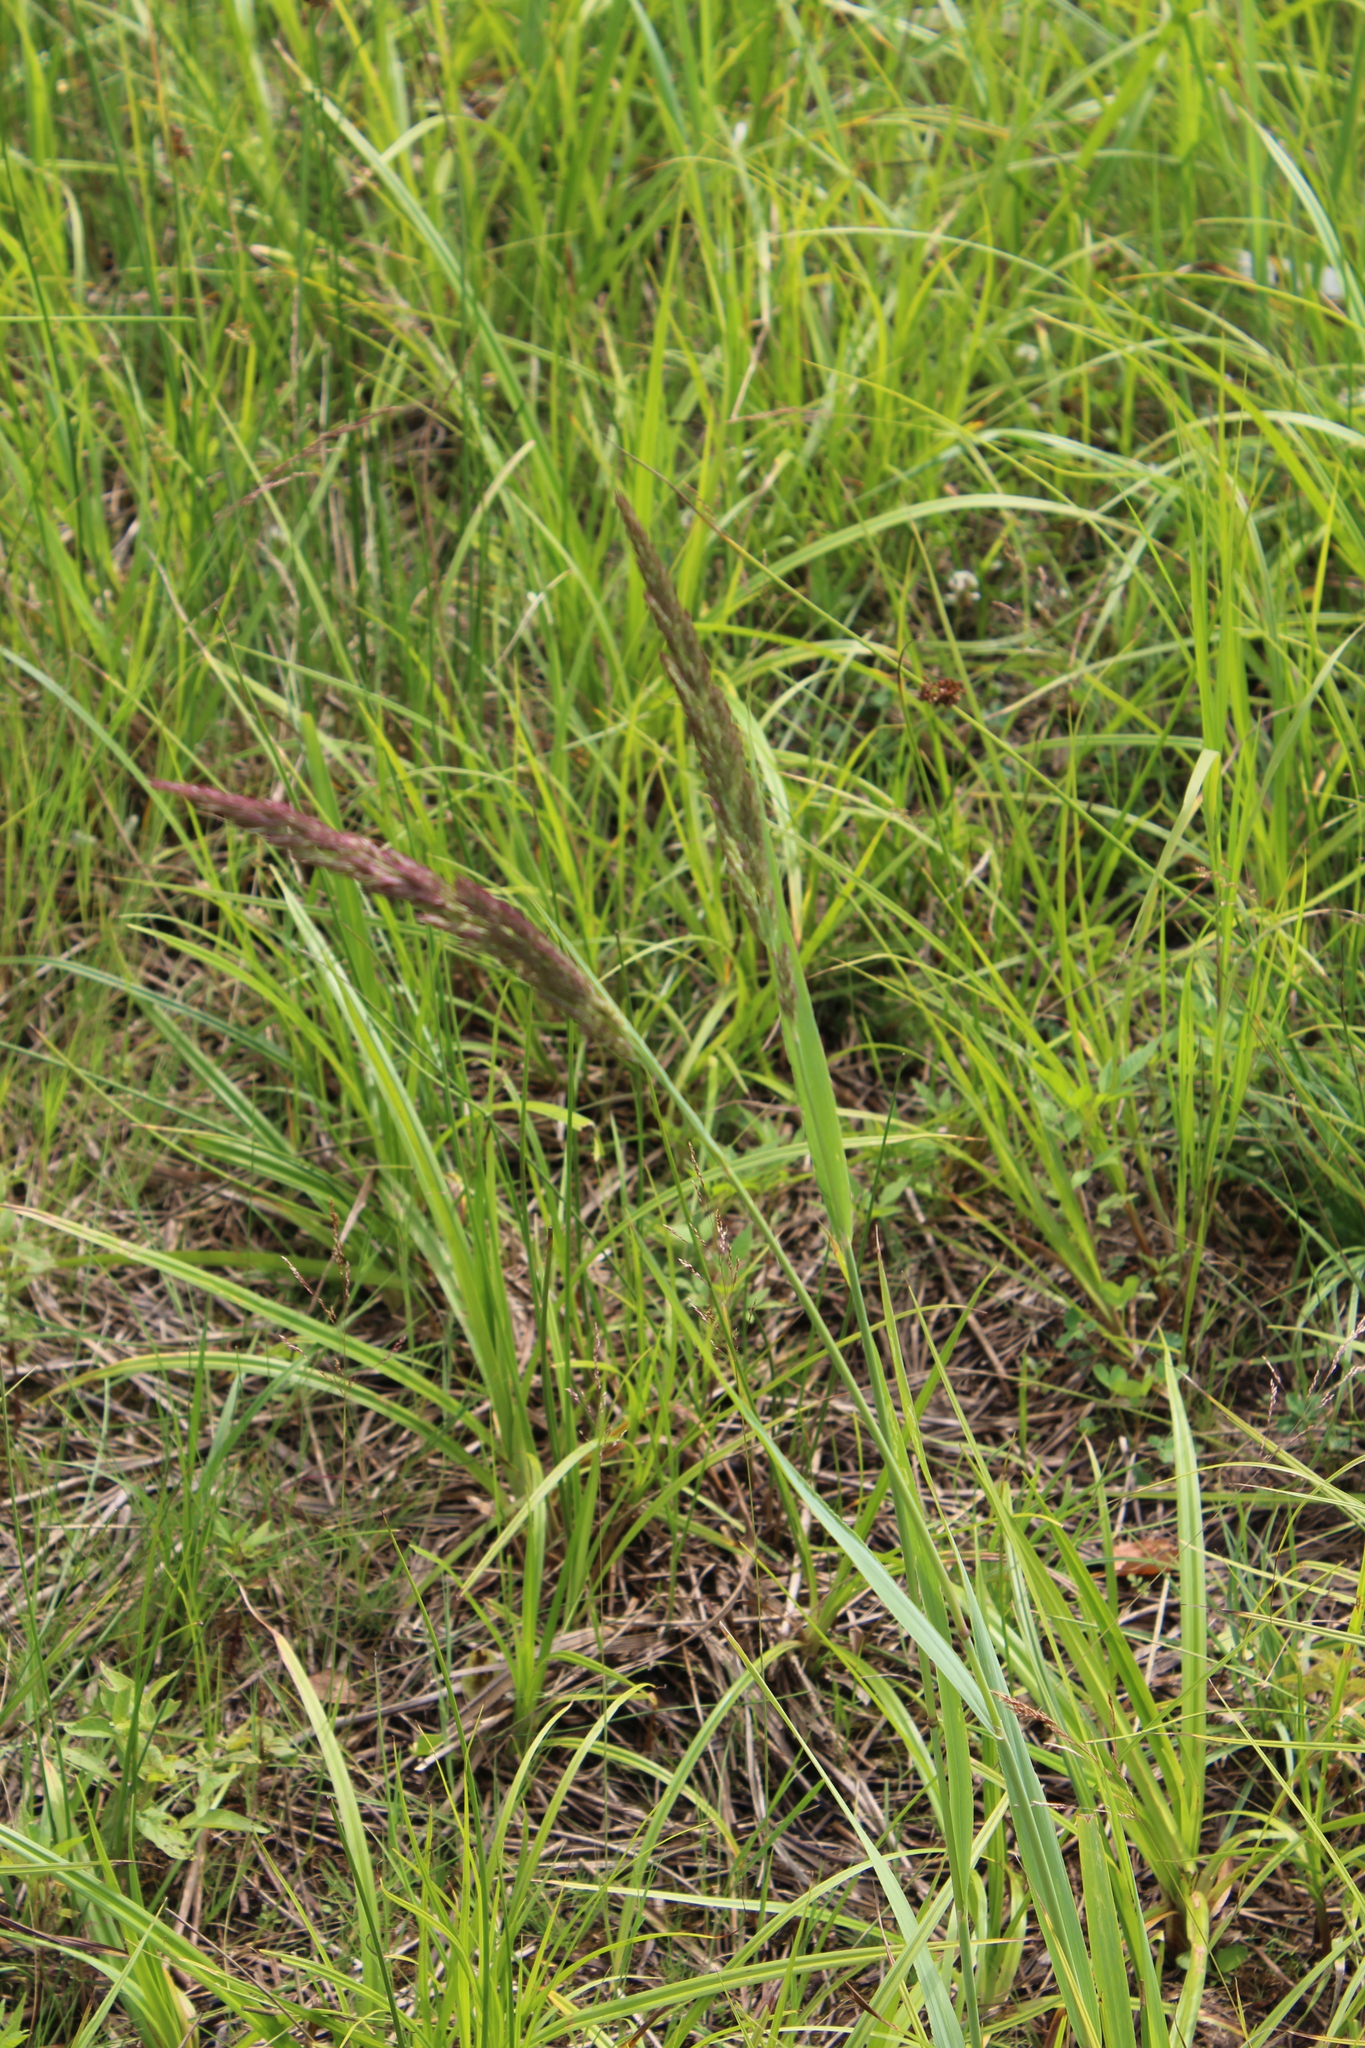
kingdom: Plantae
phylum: Tracheophyta
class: Liliopsida
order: Poales
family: Poaceae
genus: Calamagrostis
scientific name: Calamagrostis epigejos
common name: Wood small-reed
